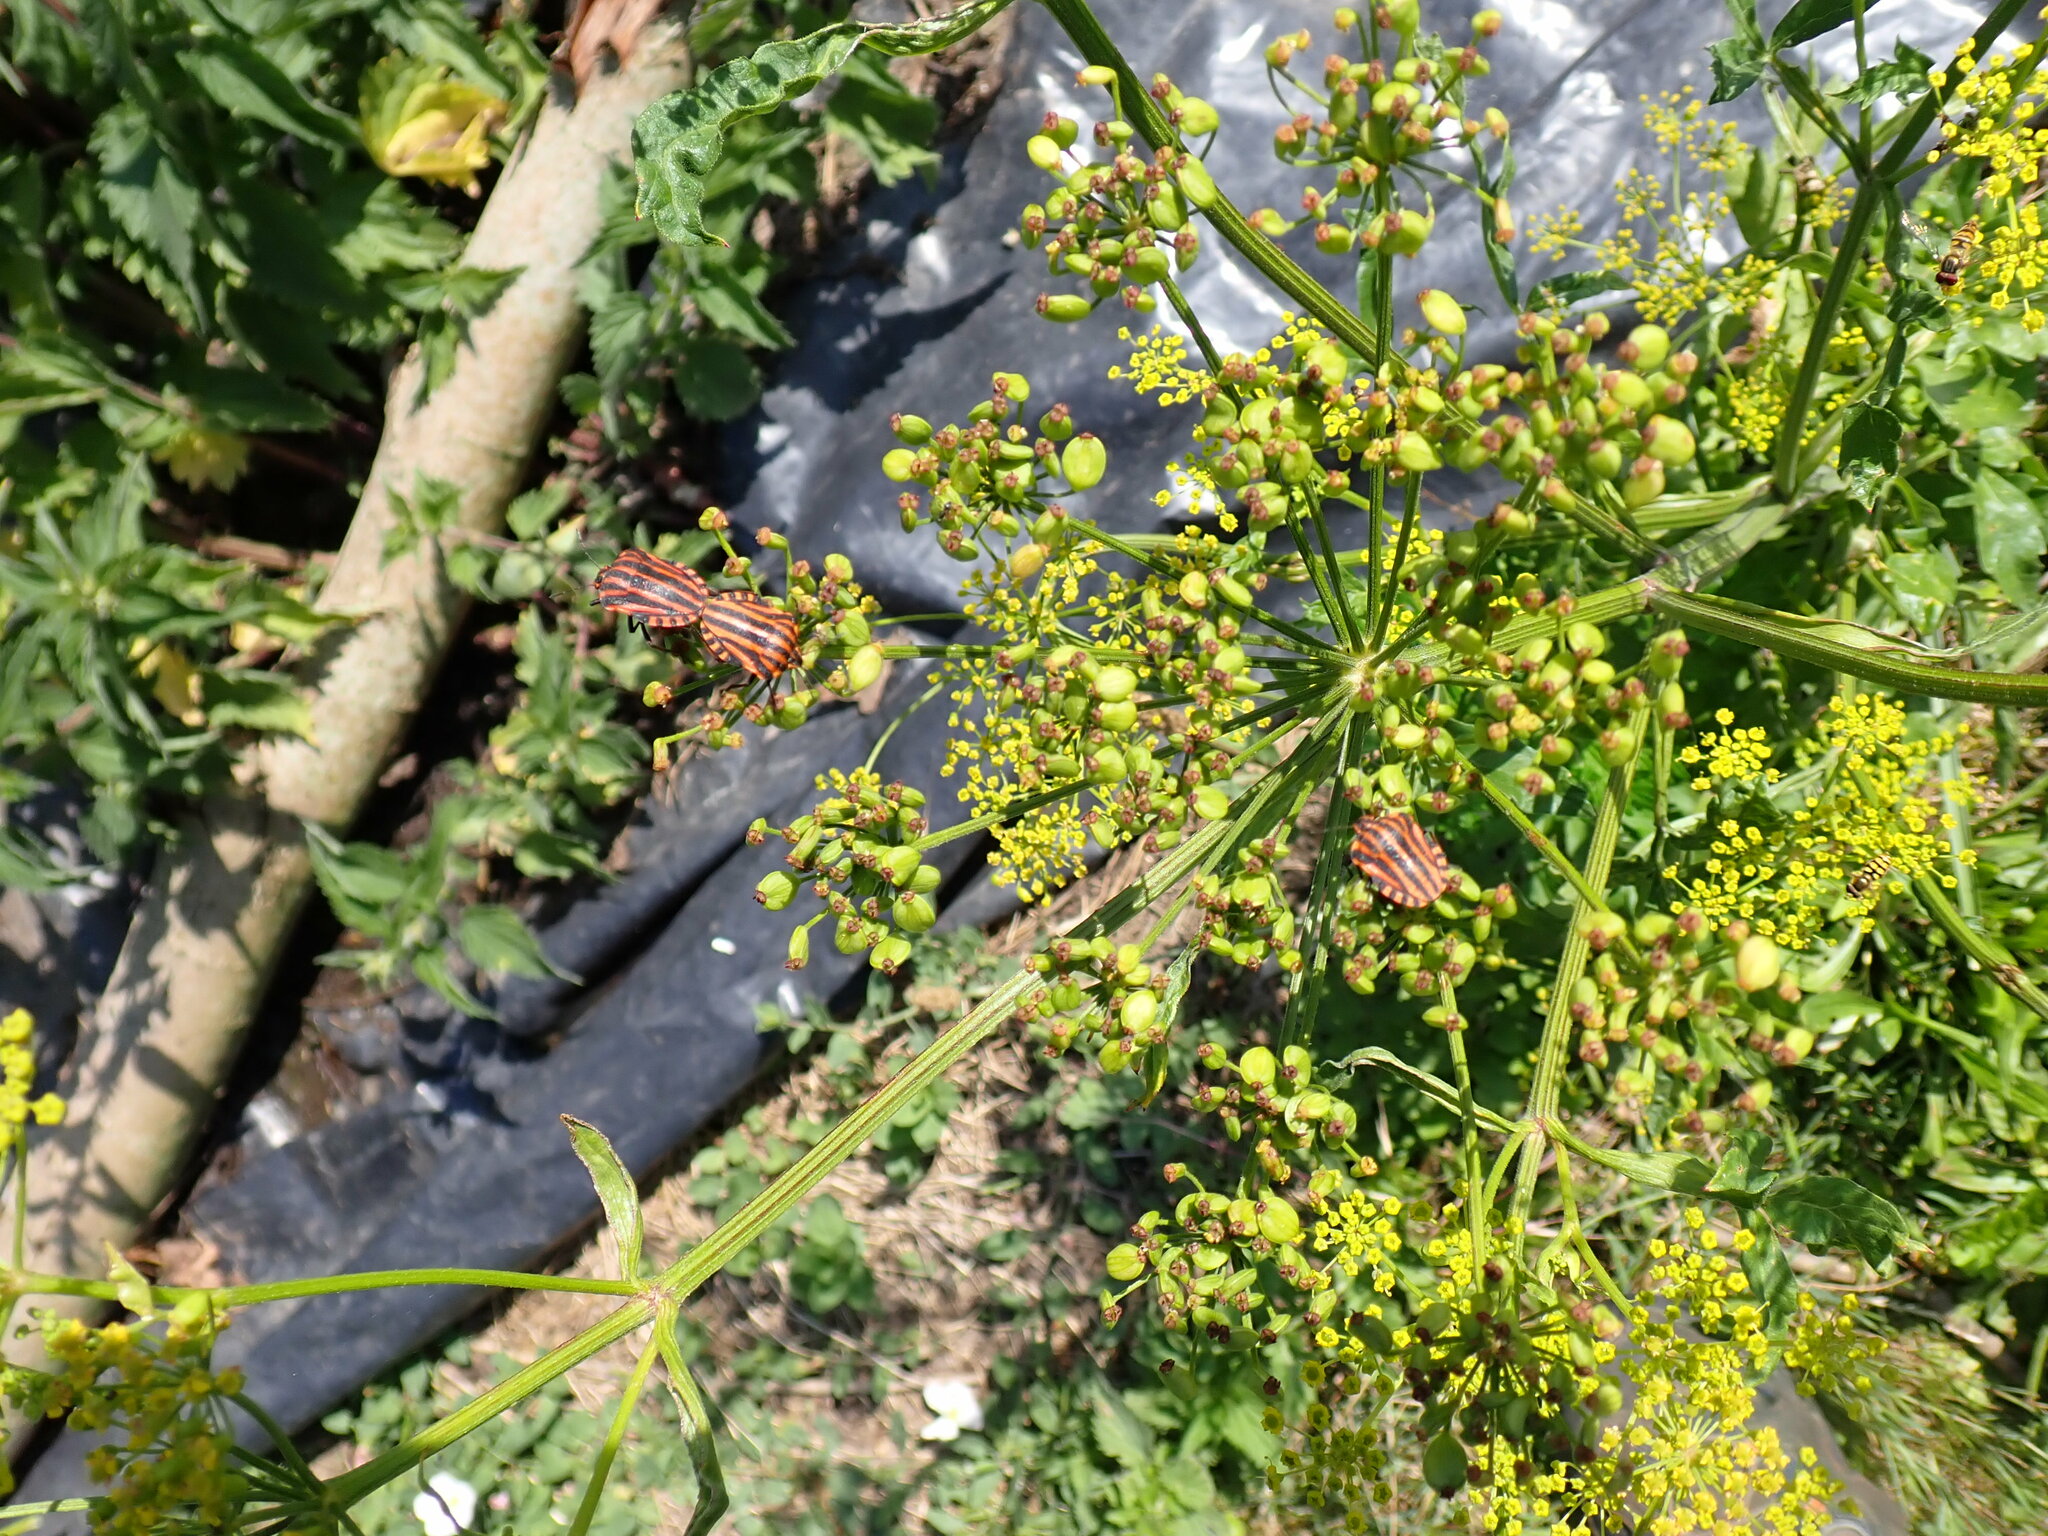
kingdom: Animalia
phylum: Arthropoda
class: Insecta
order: Hemiptera
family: Pentatomidae
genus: Graphosoma
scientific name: Graphosoma italicum
